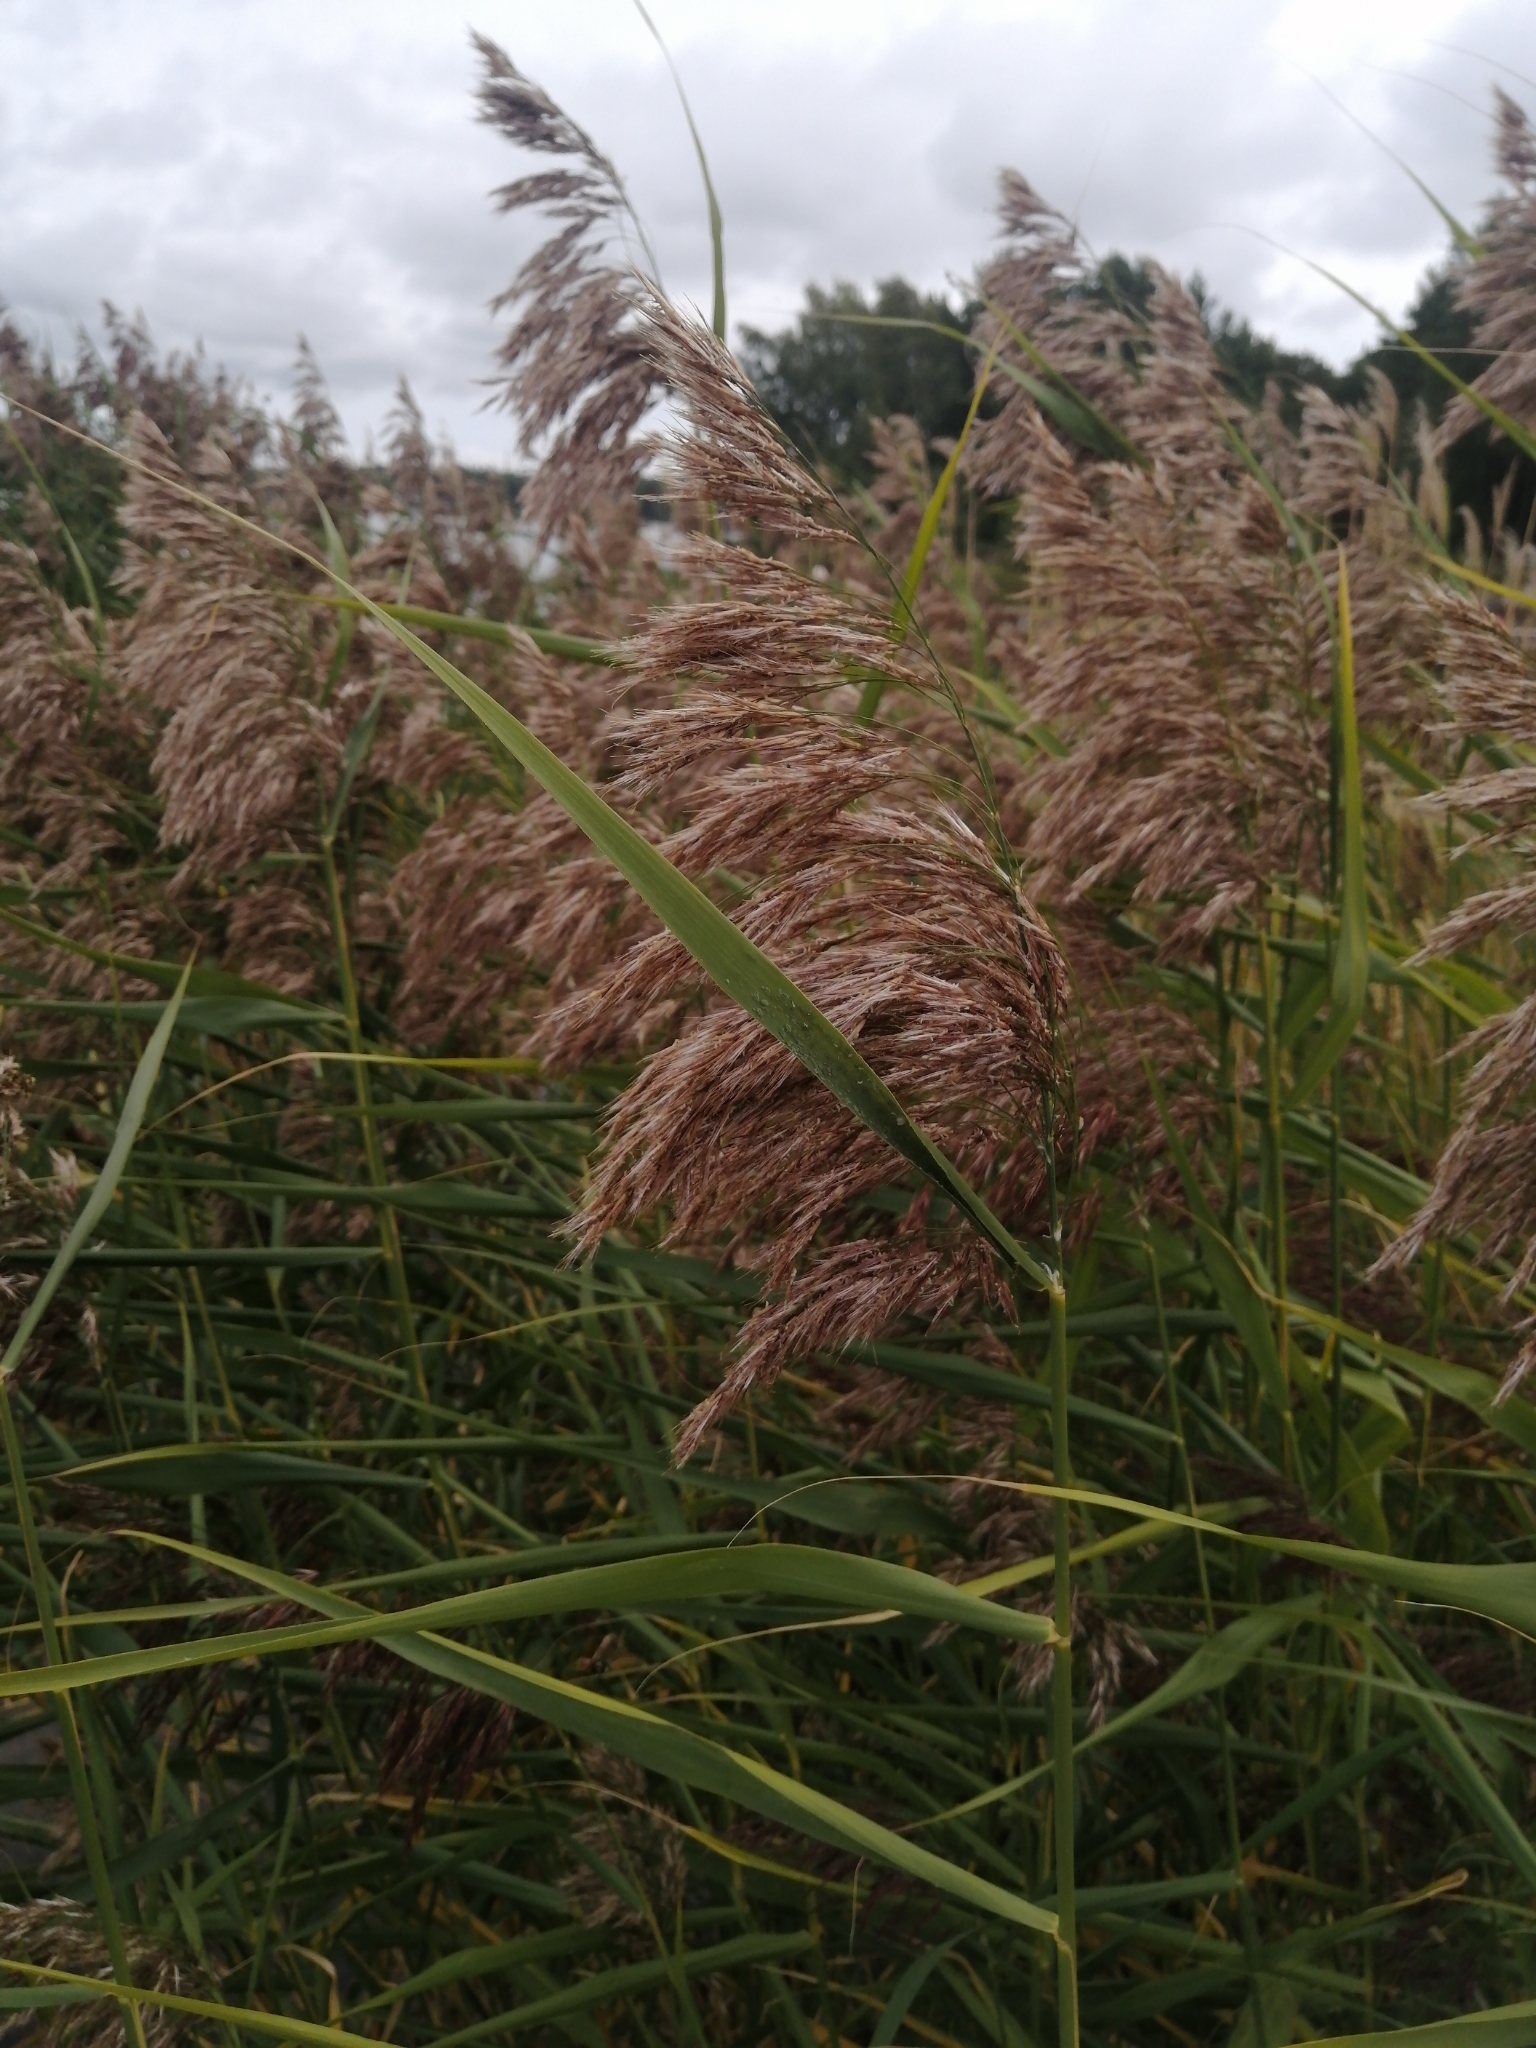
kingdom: Plantae
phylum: Tracheophyta
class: Liliopsida
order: Poales
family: Poaceae
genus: Phragmites
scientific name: Phragmites australis
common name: Common reed
